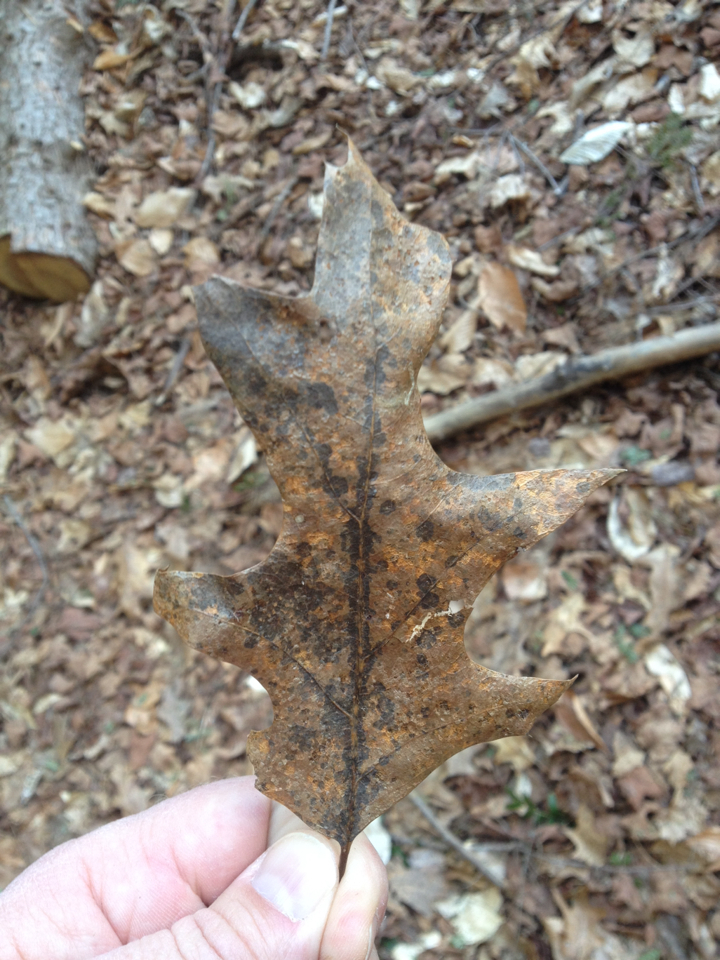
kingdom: Plantae
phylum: Tracheophyta
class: Magnoliopsida
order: Fagales
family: Fagaceae
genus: Quercus
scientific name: Quercus rubra
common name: Red oak
